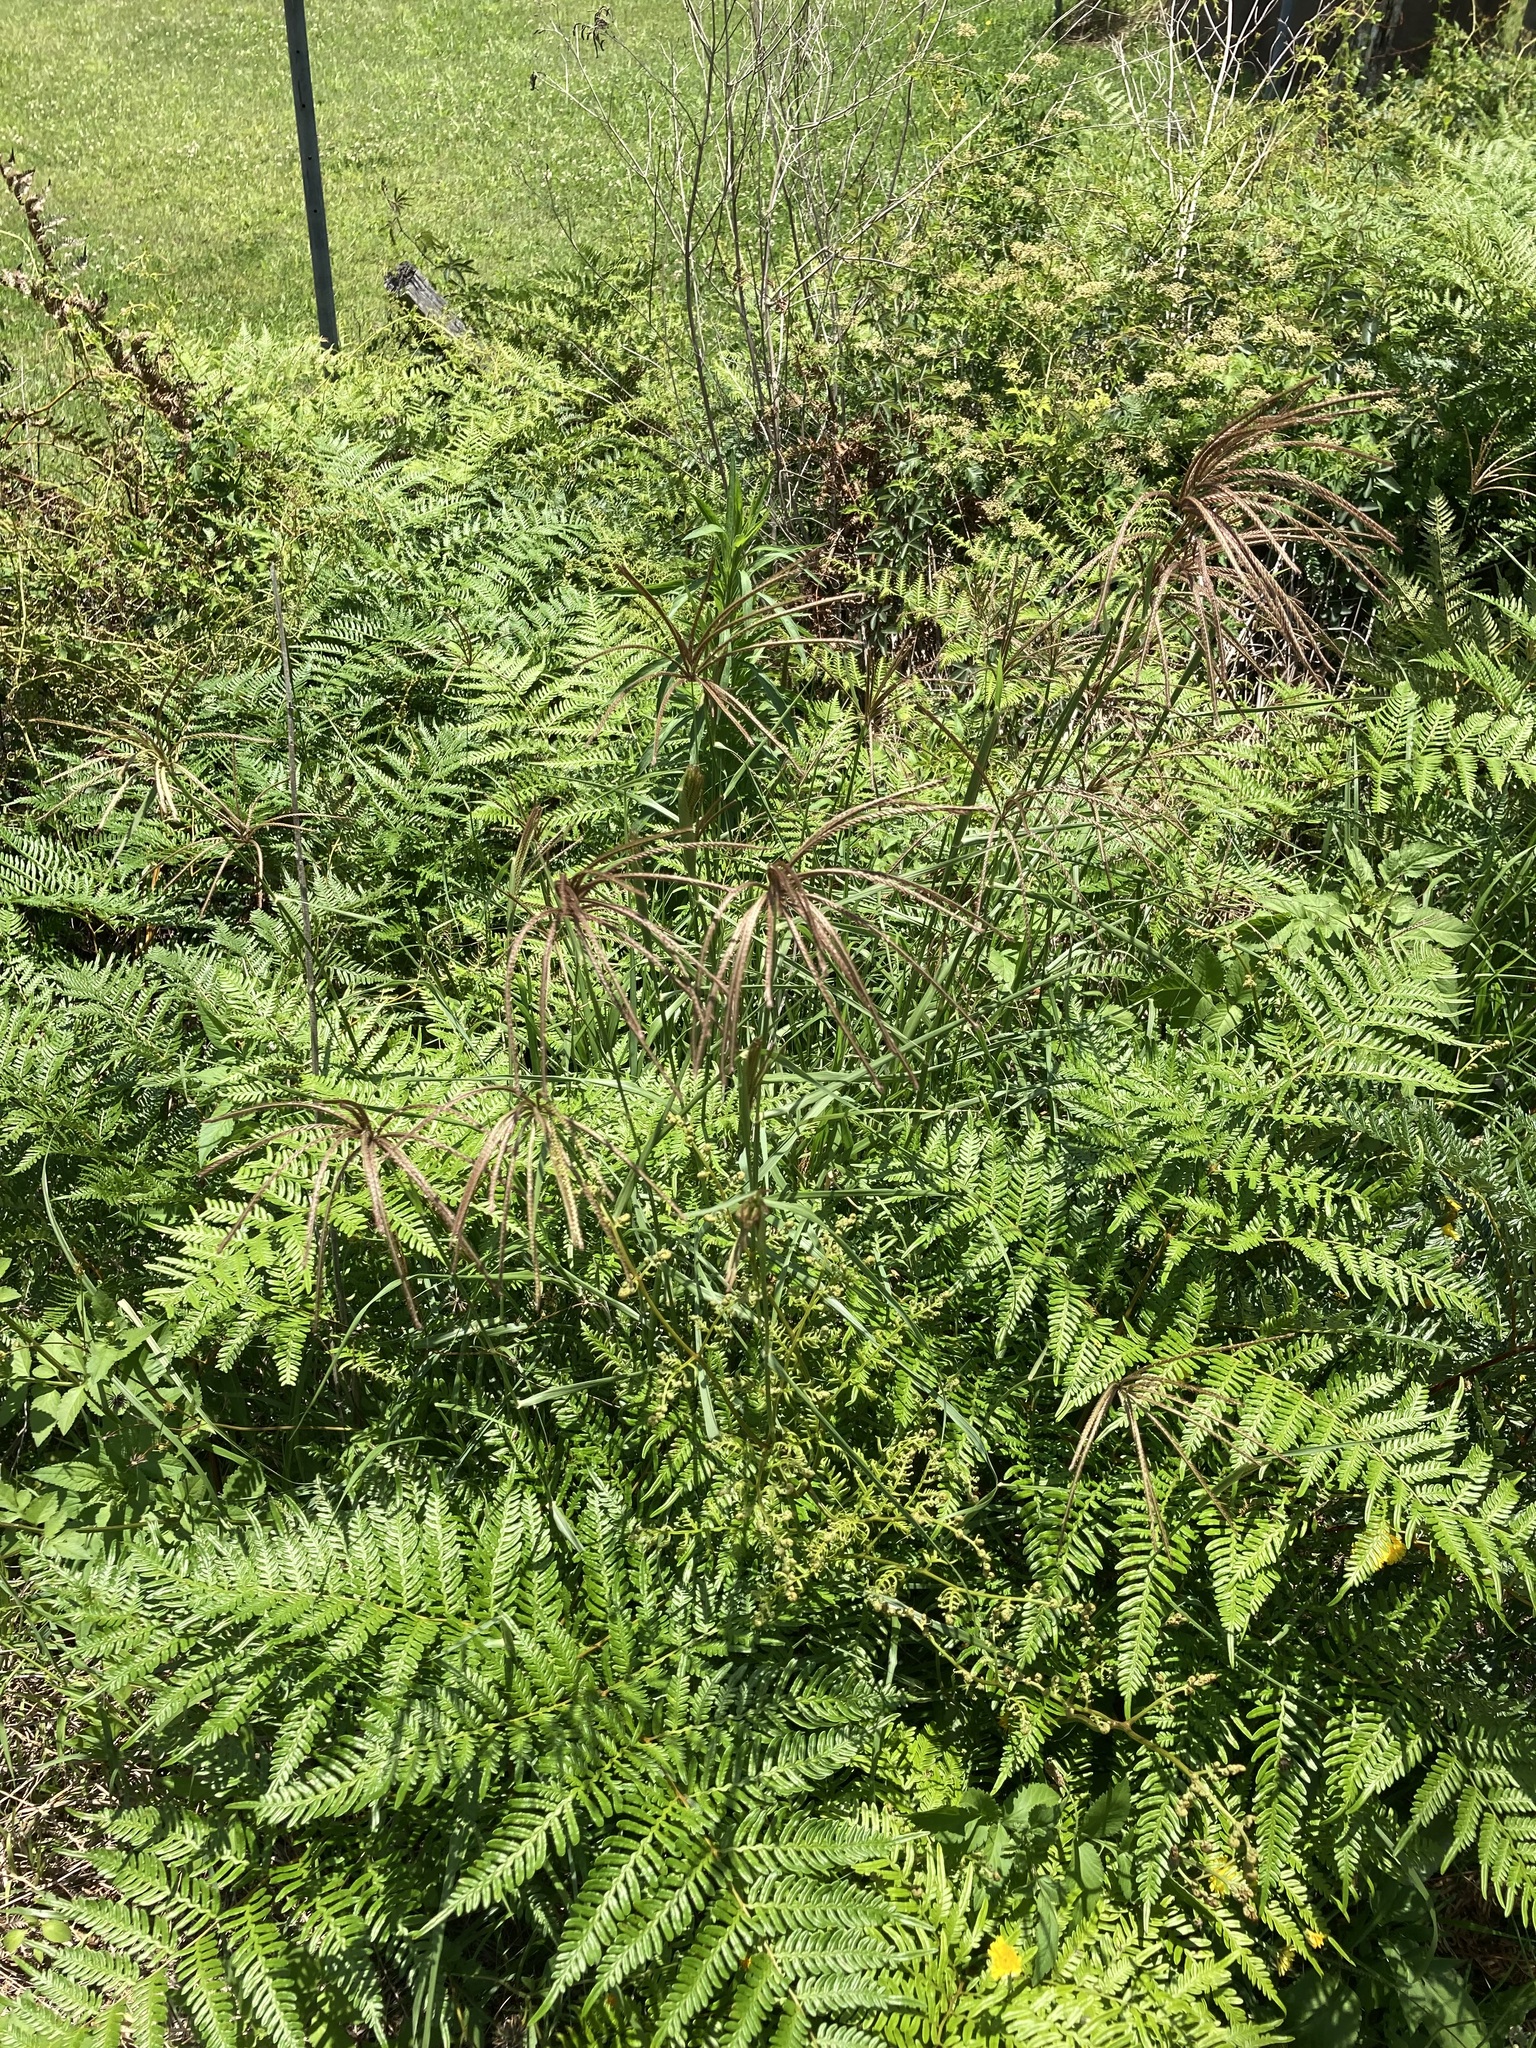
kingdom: Plantae
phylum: Tracheophyta
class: Liliopsida
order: Poales
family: Poaceae
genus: Chloris
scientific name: Chloris gayana
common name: Rhodes grass
